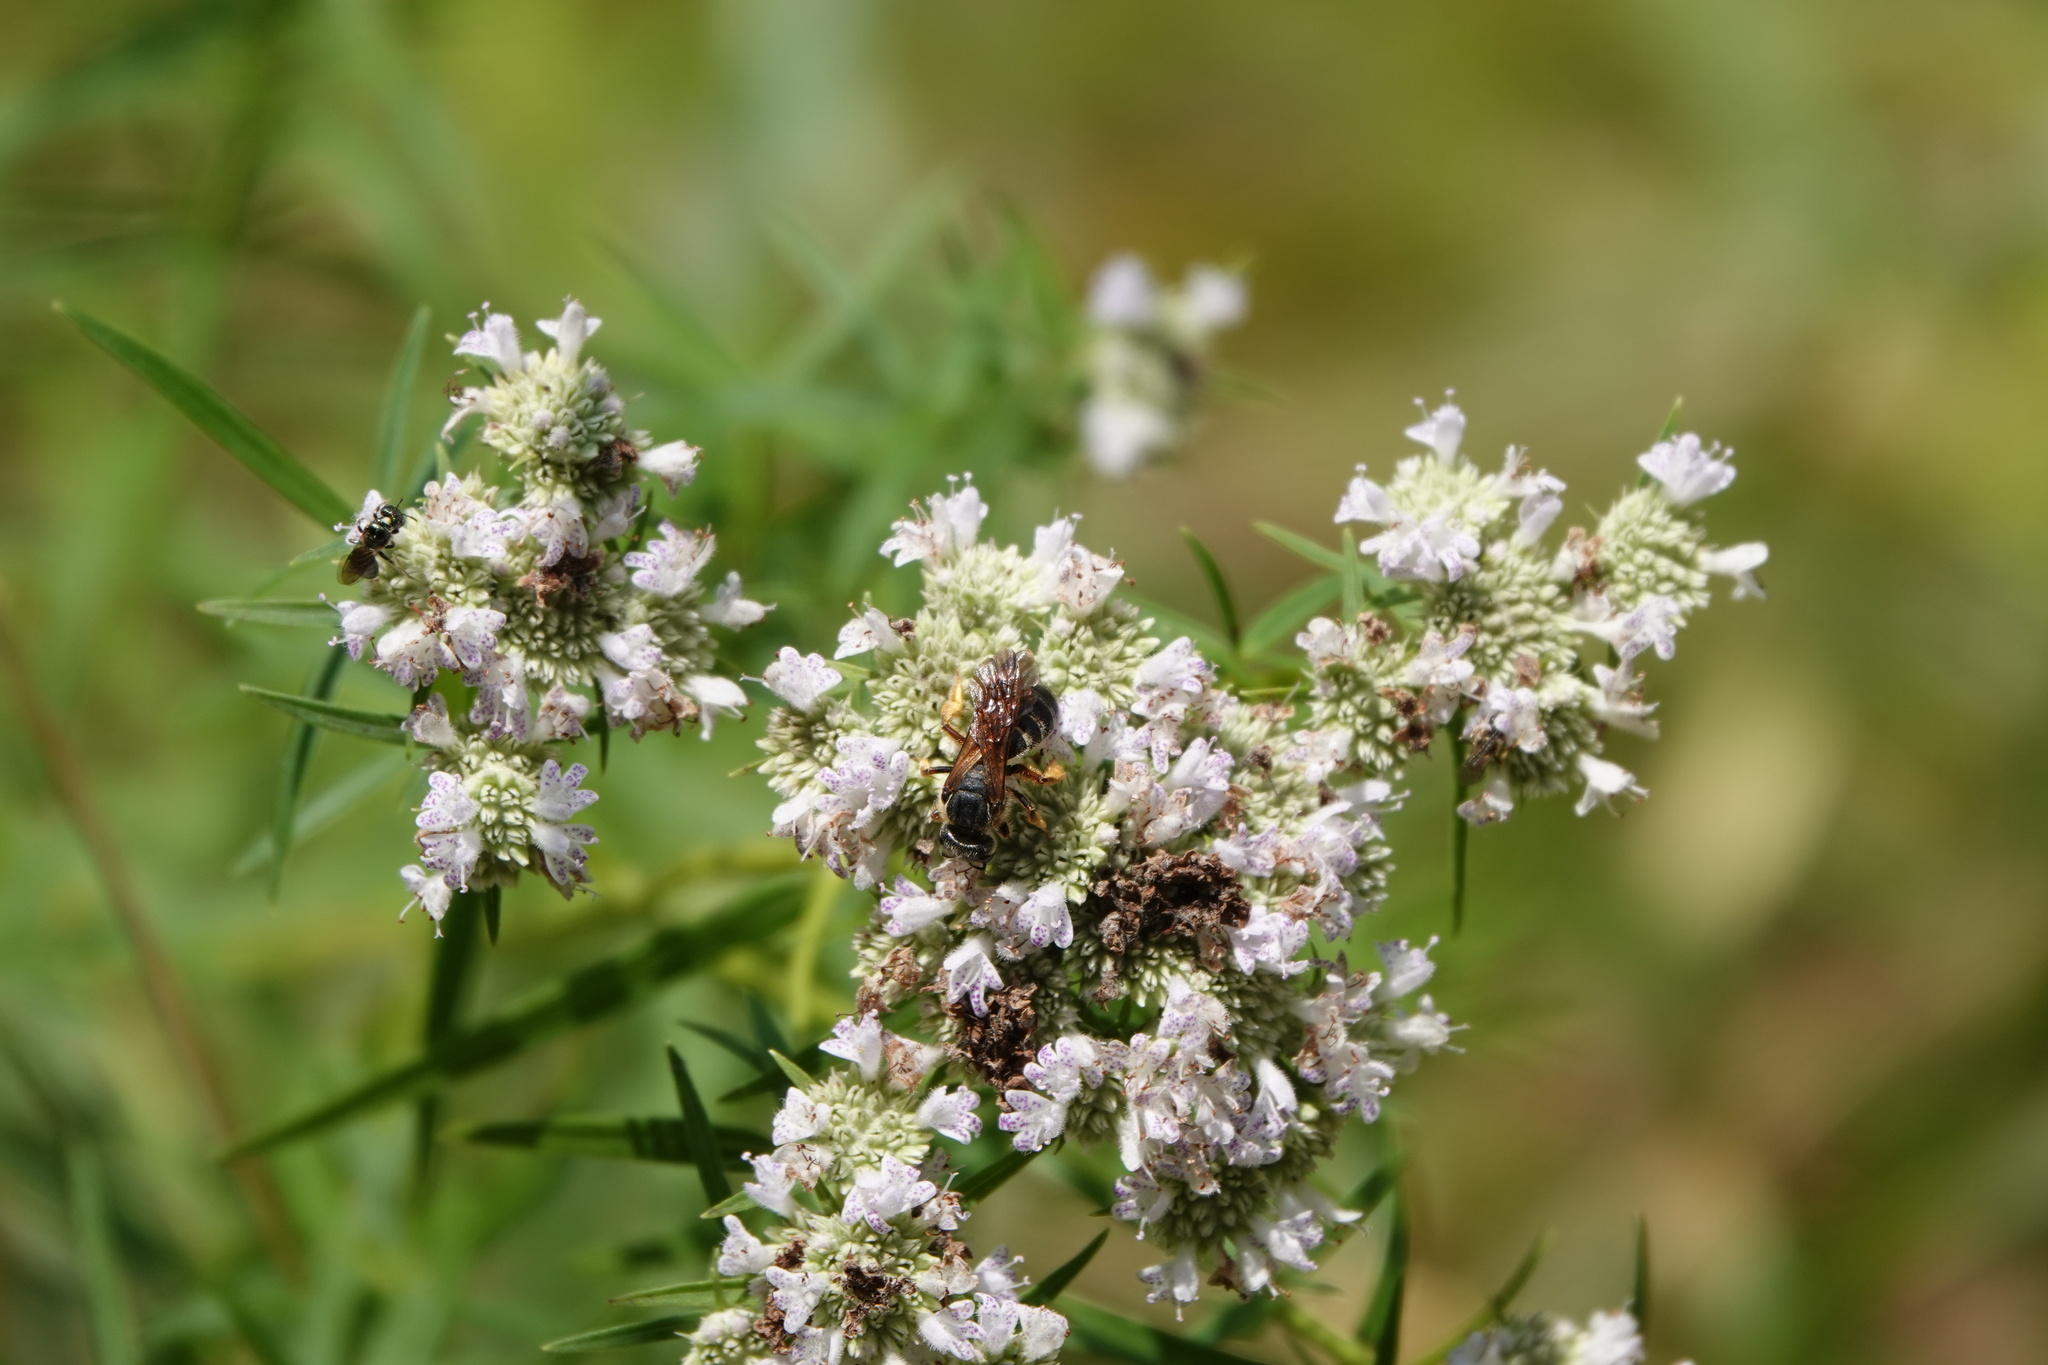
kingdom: Animalia
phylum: Arthropoda
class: Insecta
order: Hymenoptera
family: Halictidae
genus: Halictus
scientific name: Halictus parallelus
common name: Parallel-striped sweat bee
